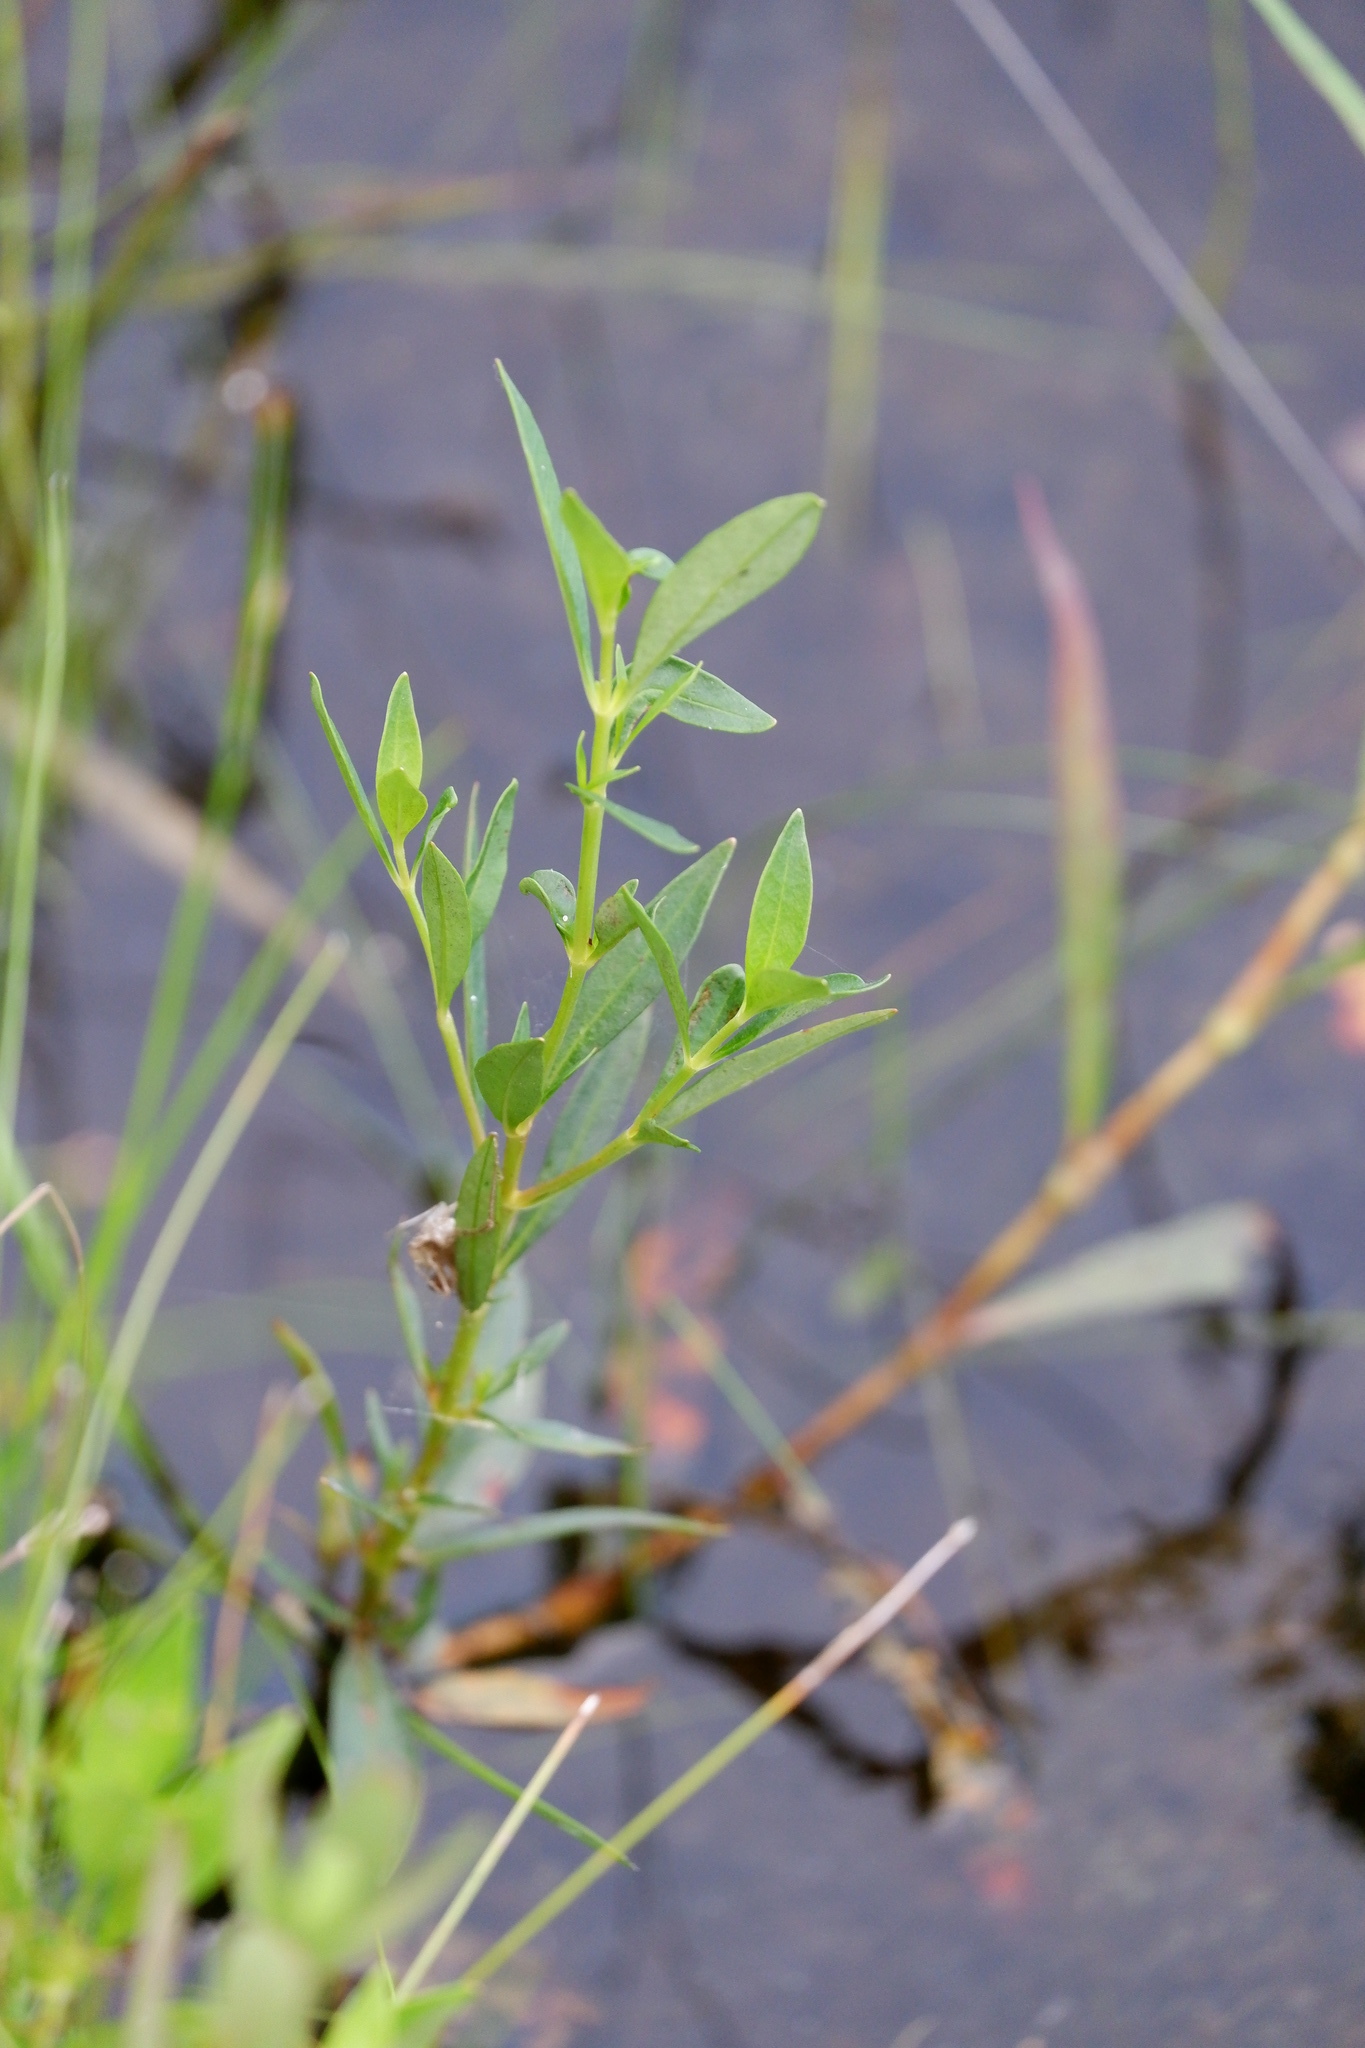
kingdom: Plantae
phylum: Tracheophyta
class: Magnoliopsida
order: Ericales
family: Primulaceae
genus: Lysimachia
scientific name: Lysimachia terrestris
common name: Lake loosestrife
